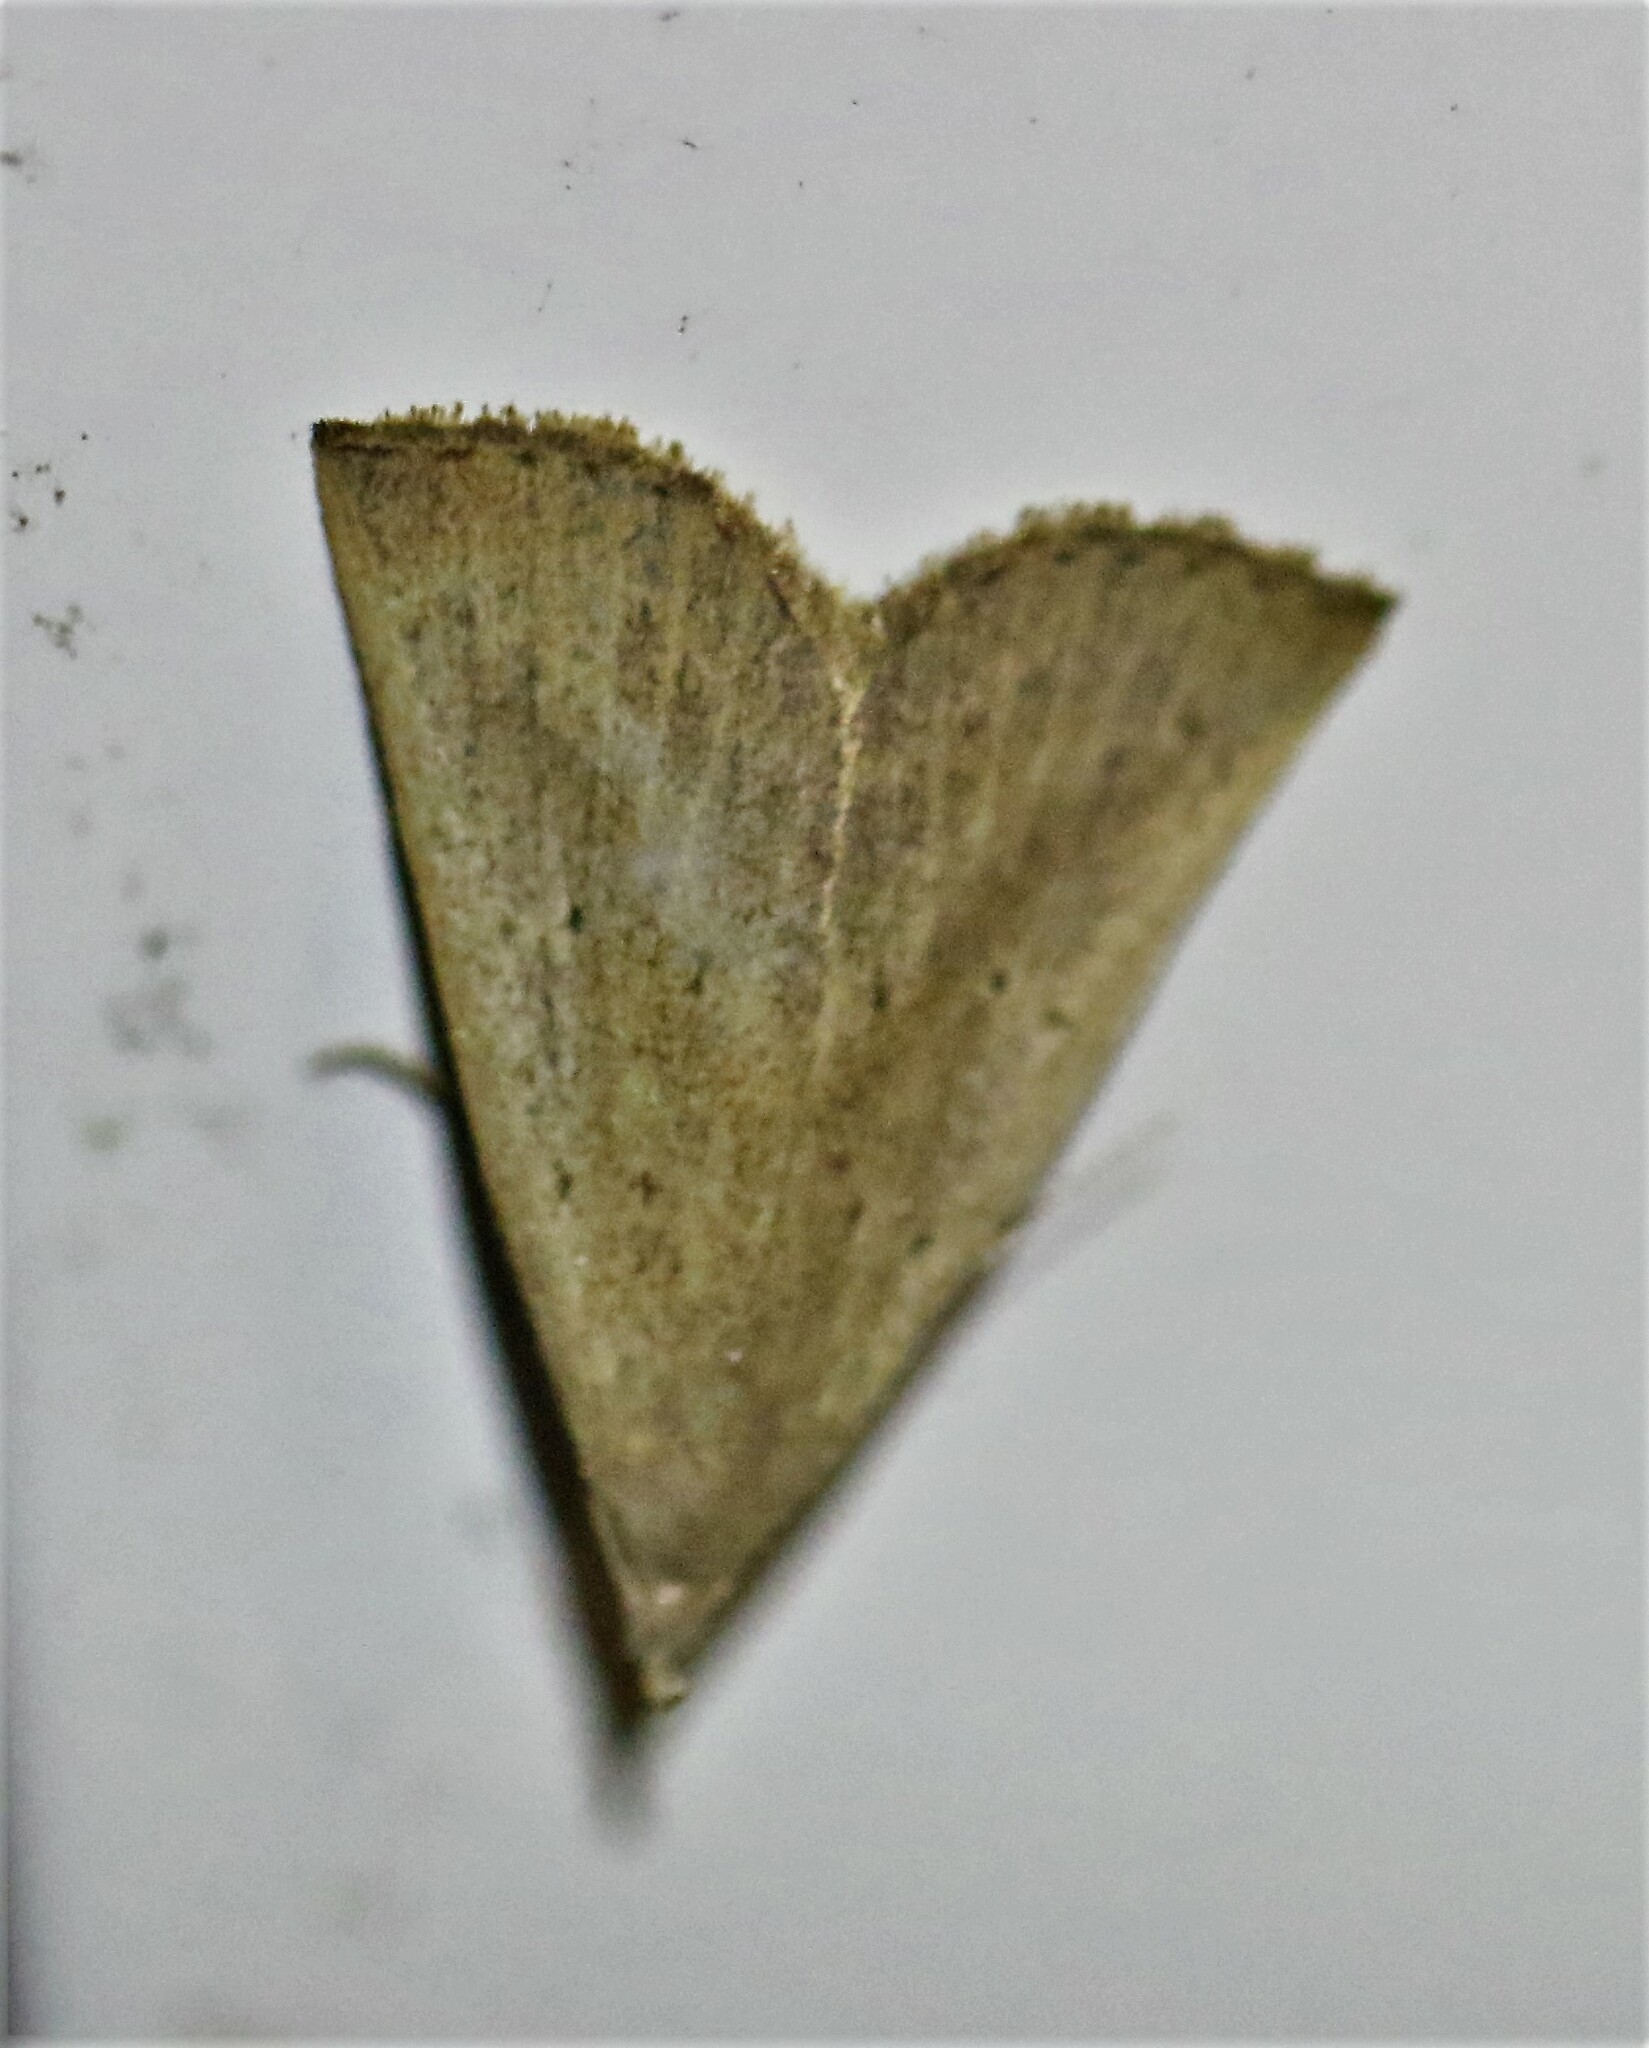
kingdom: Animalia
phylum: Arthropoda
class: Insecta
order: Lepidoptera
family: Erebidae
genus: Macrochilo
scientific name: Macrochilo louisiana
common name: Louisiana macrochilo
